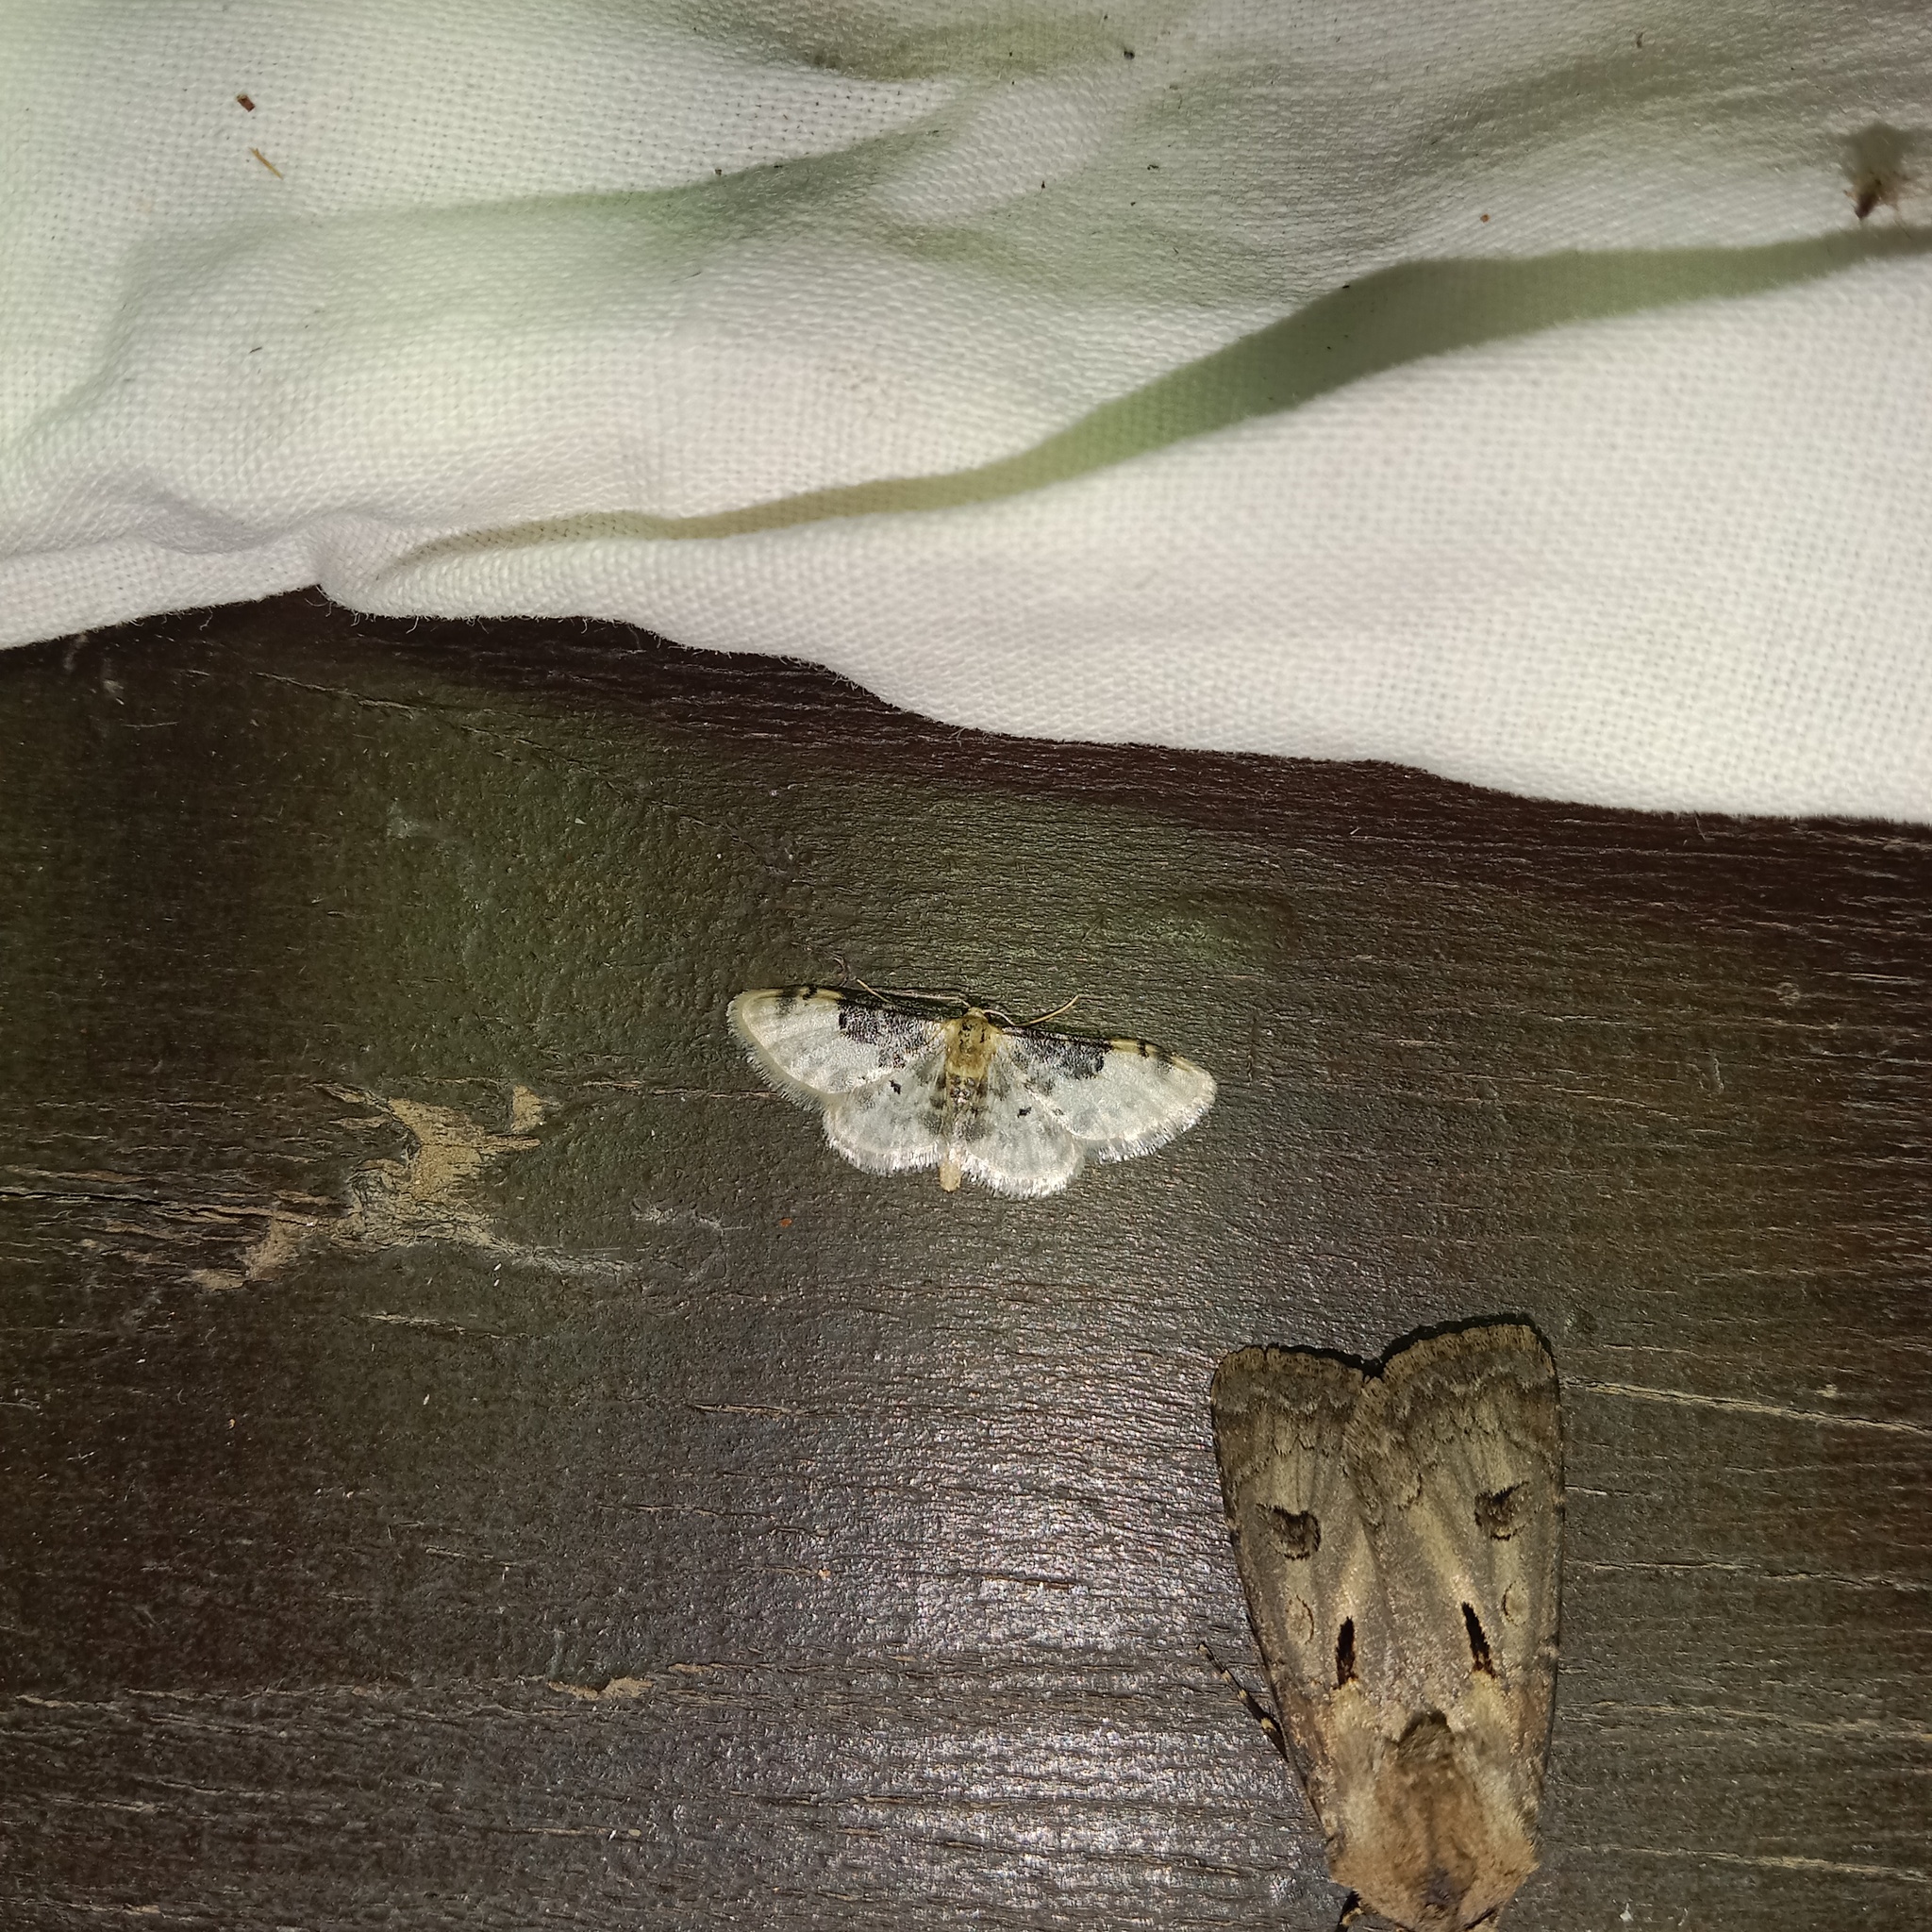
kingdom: Animalia
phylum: Arthropoda
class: Insecta
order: Lepidoptera
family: Geometridae
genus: Idaea
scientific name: Idaea filicata
